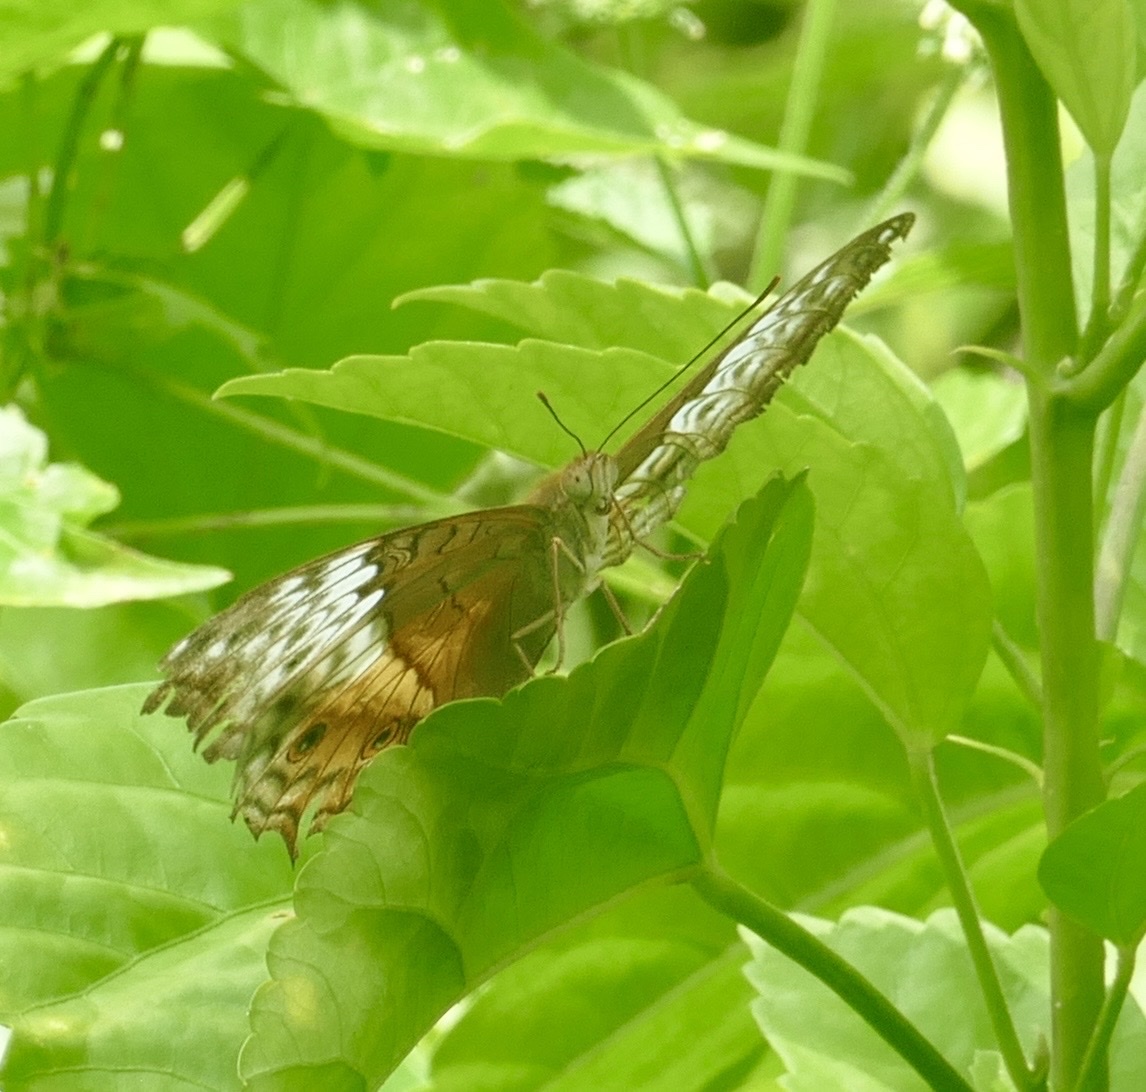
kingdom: Animalia
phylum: Arthropoda
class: Insecta
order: Lepidoptera
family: Nymphalidae
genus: Vindula
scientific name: Vindula arsinoe
